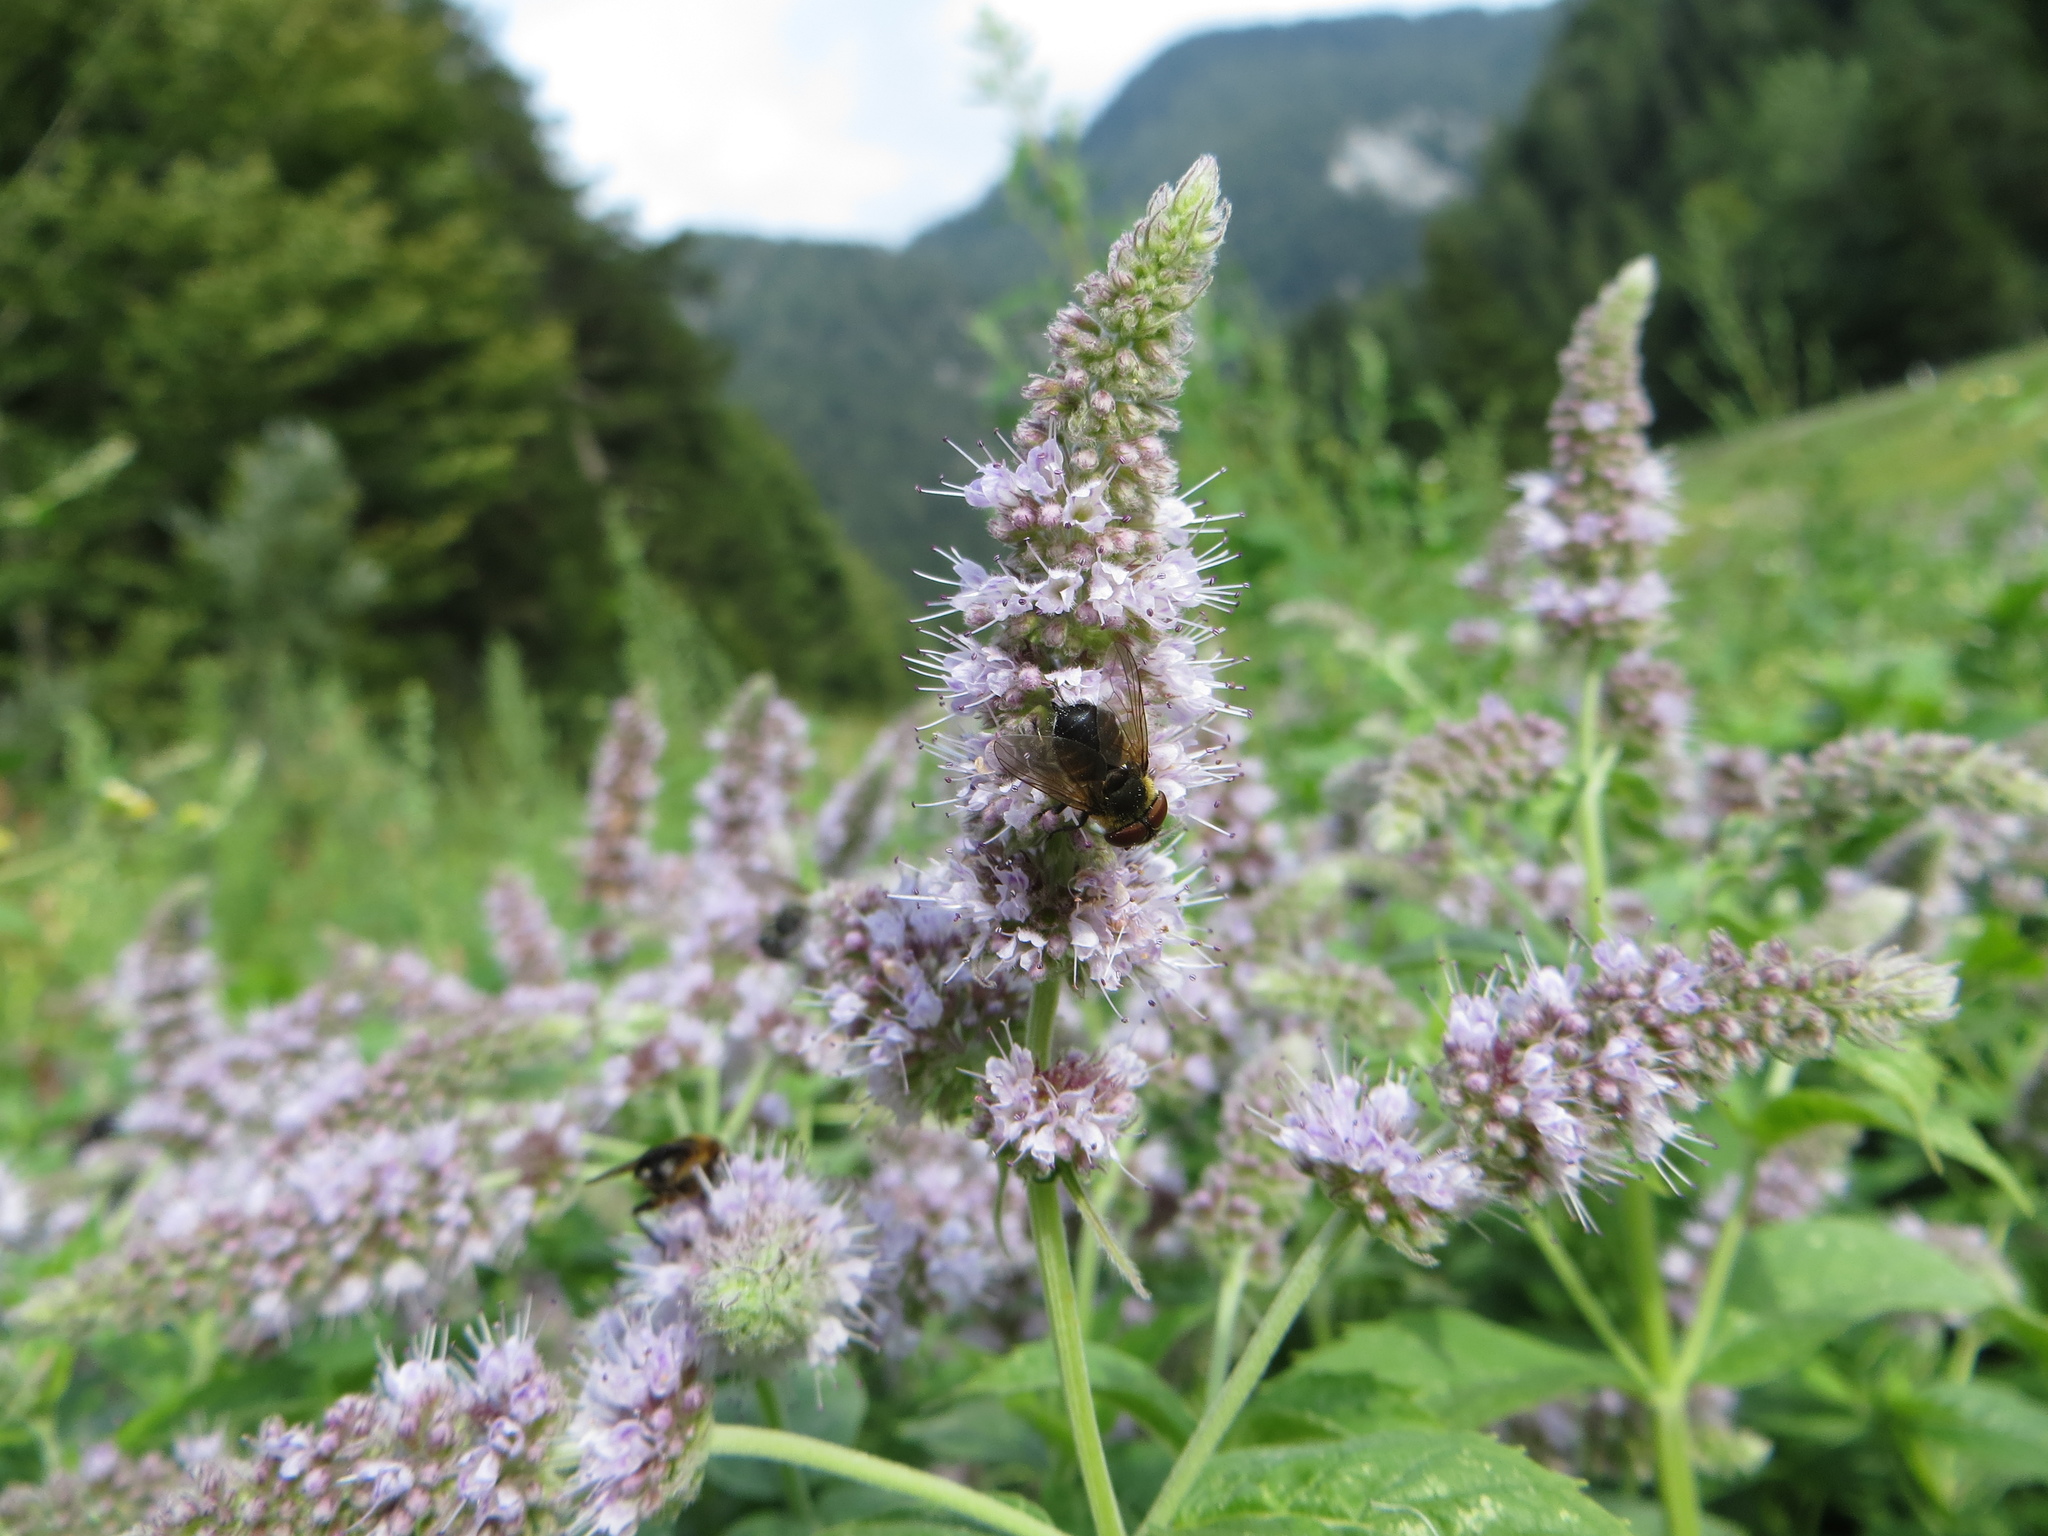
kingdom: Animalia
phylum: Arthropoda
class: Insecta
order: Diptera
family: Tachinidae
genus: Phasia
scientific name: Phasia hemiptera
